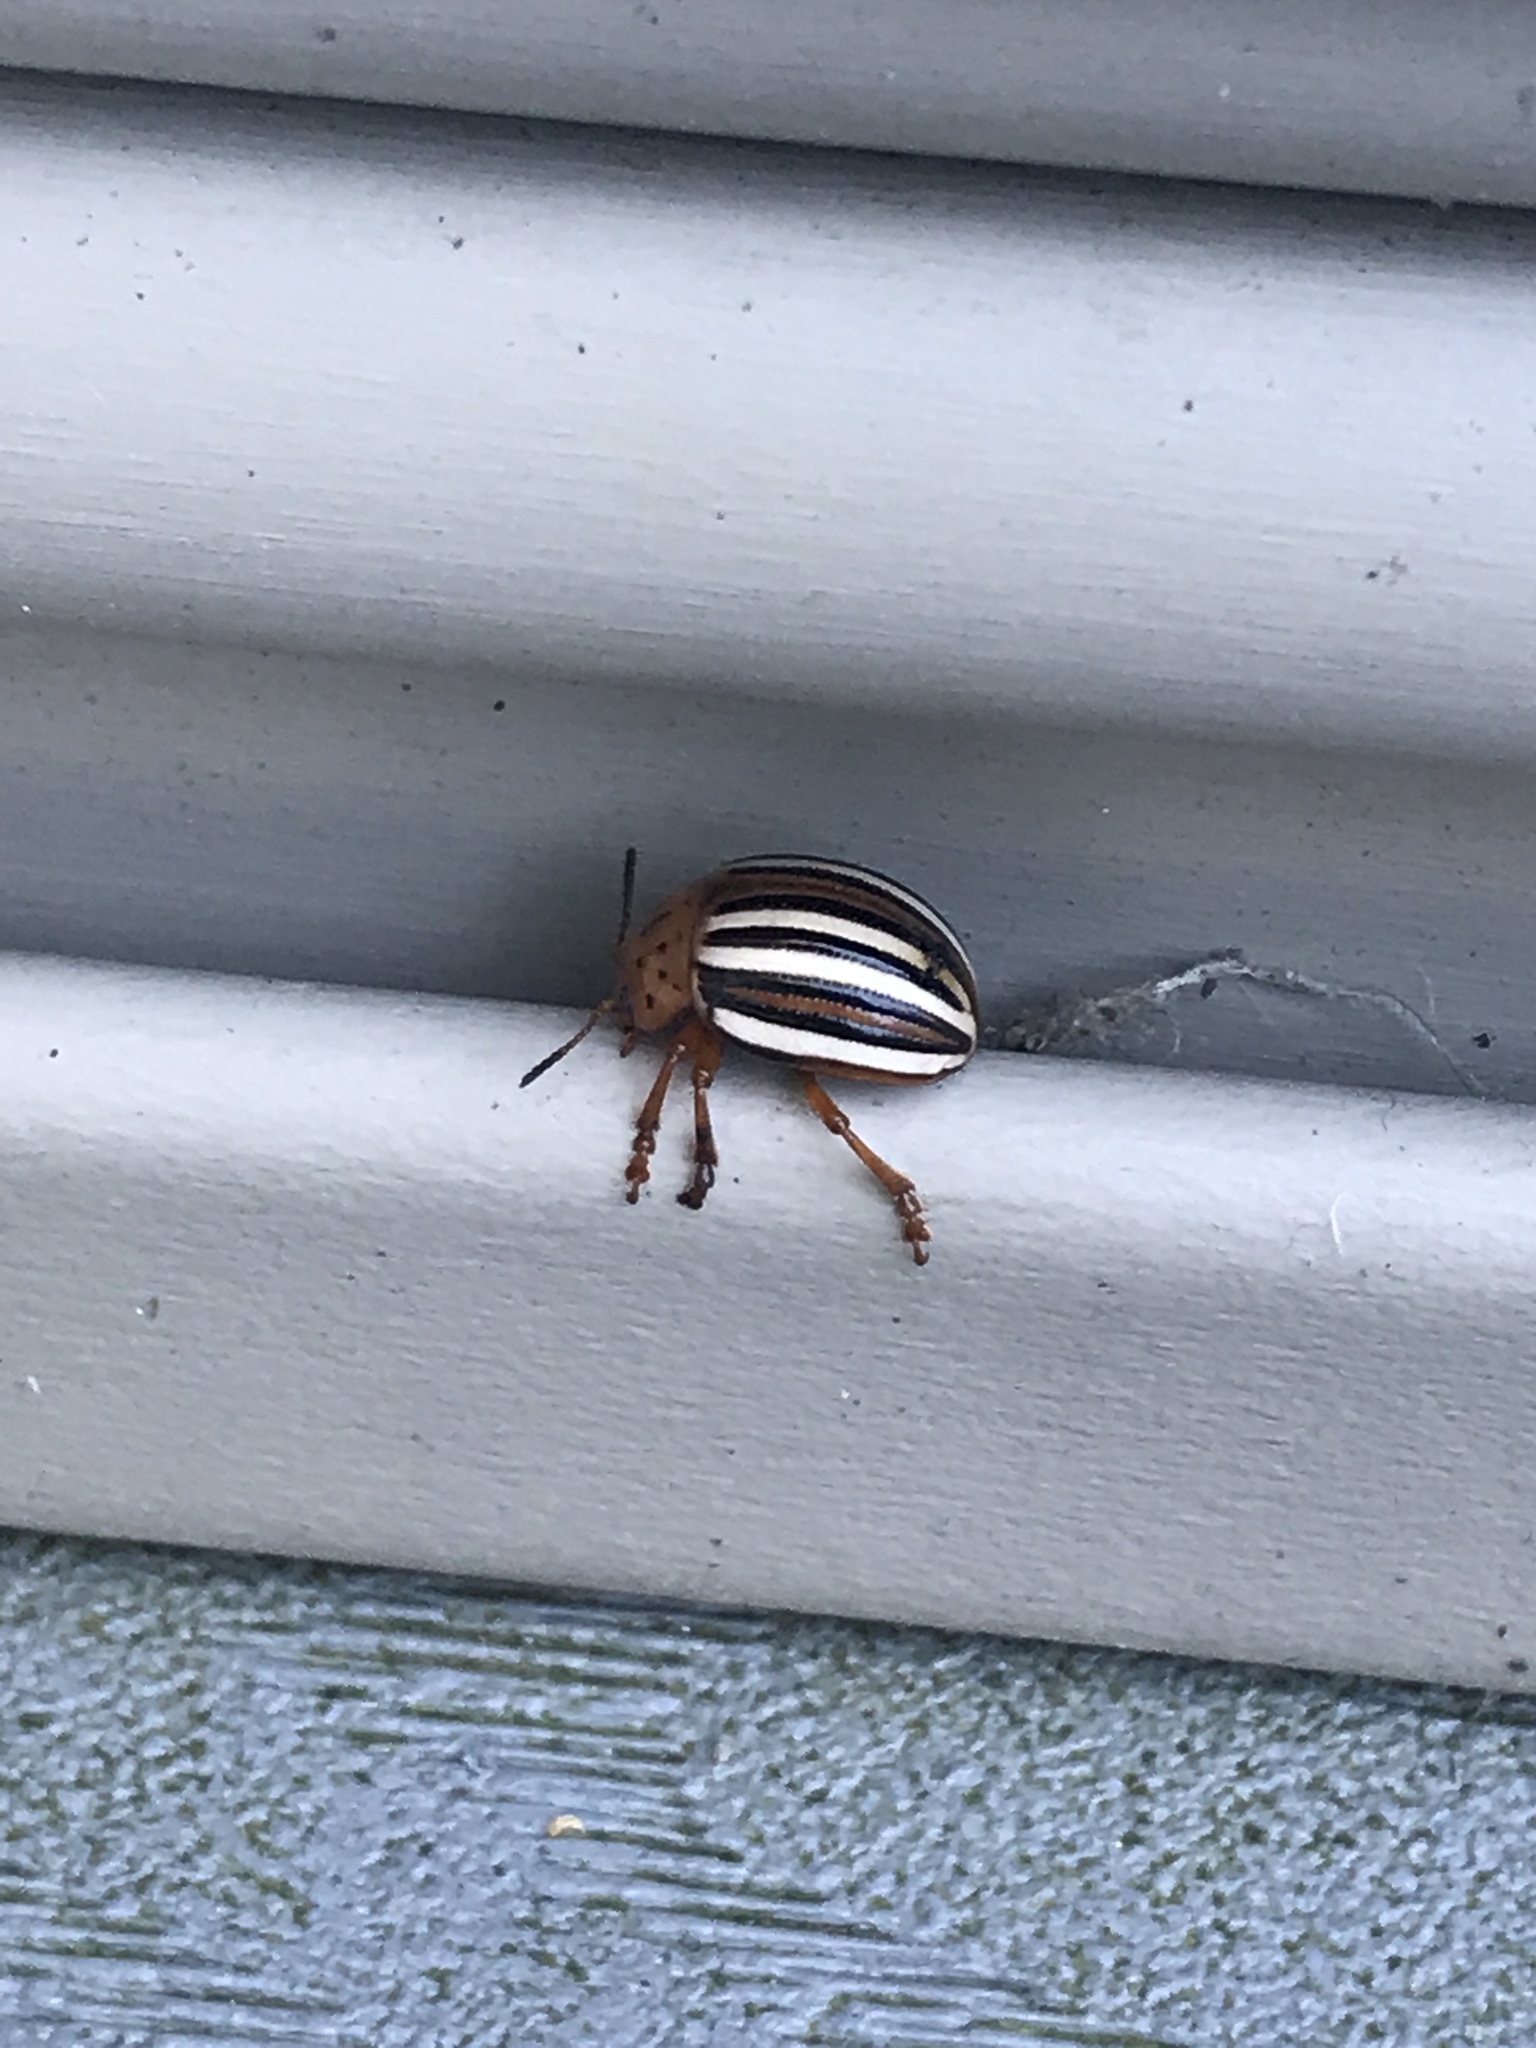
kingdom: Animalia
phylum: Arthropoda
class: Insecta
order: Coleoptera
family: Chrysomelidae
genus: Leptinotarsa
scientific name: Leptinotarsa juncta
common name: False potato beetle
